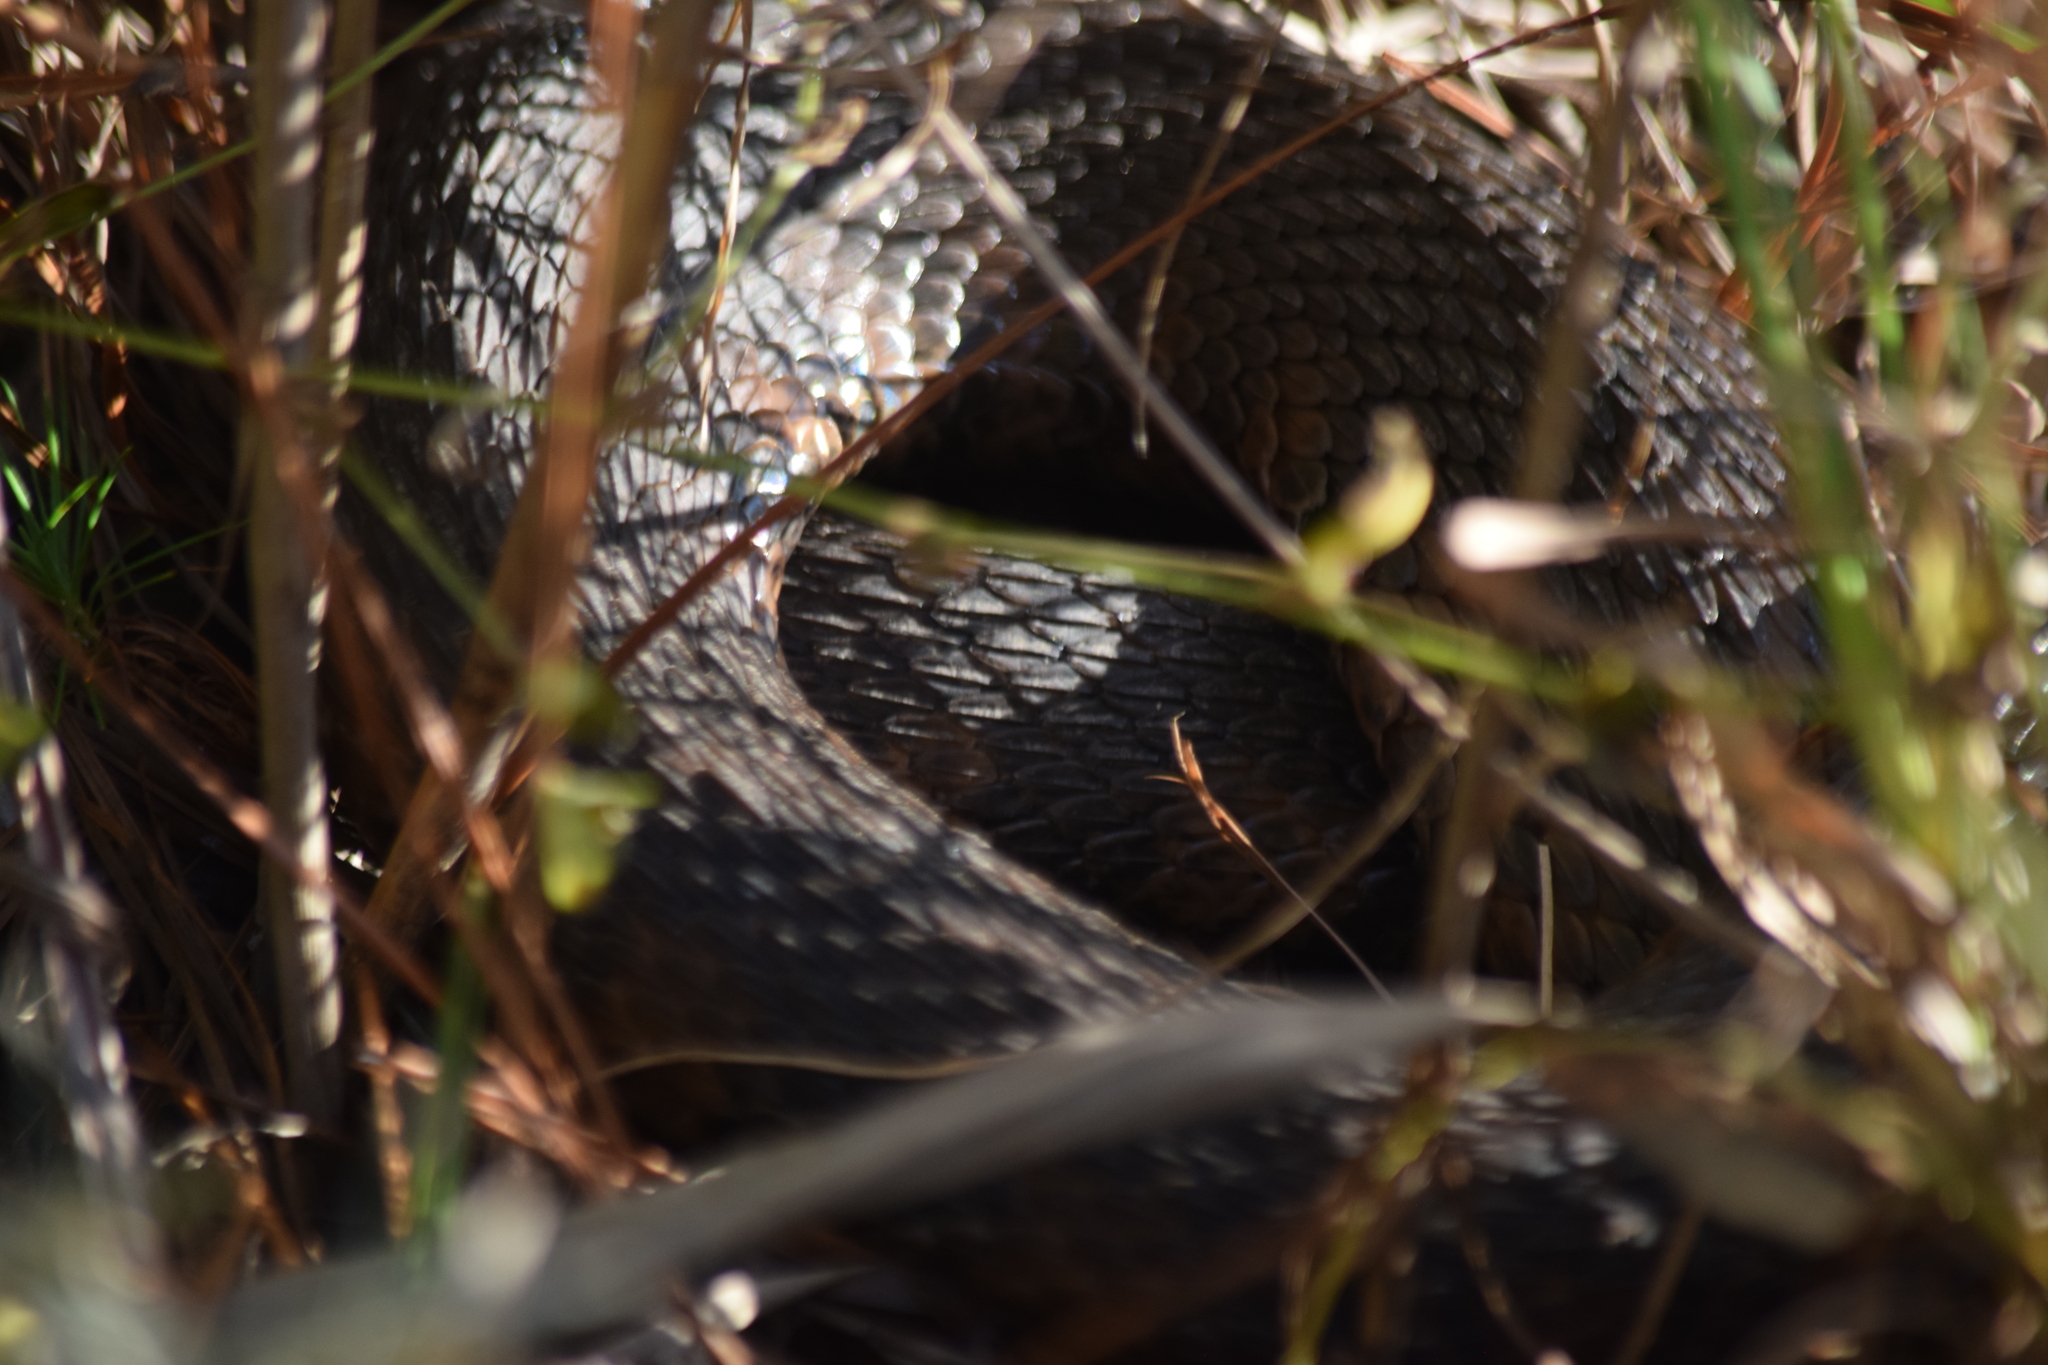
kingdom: Animalia
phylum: Chordata
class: Squamata
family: Colubridae
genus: Nerodia
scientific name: Nerodia sipedon
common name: Northern water snake
